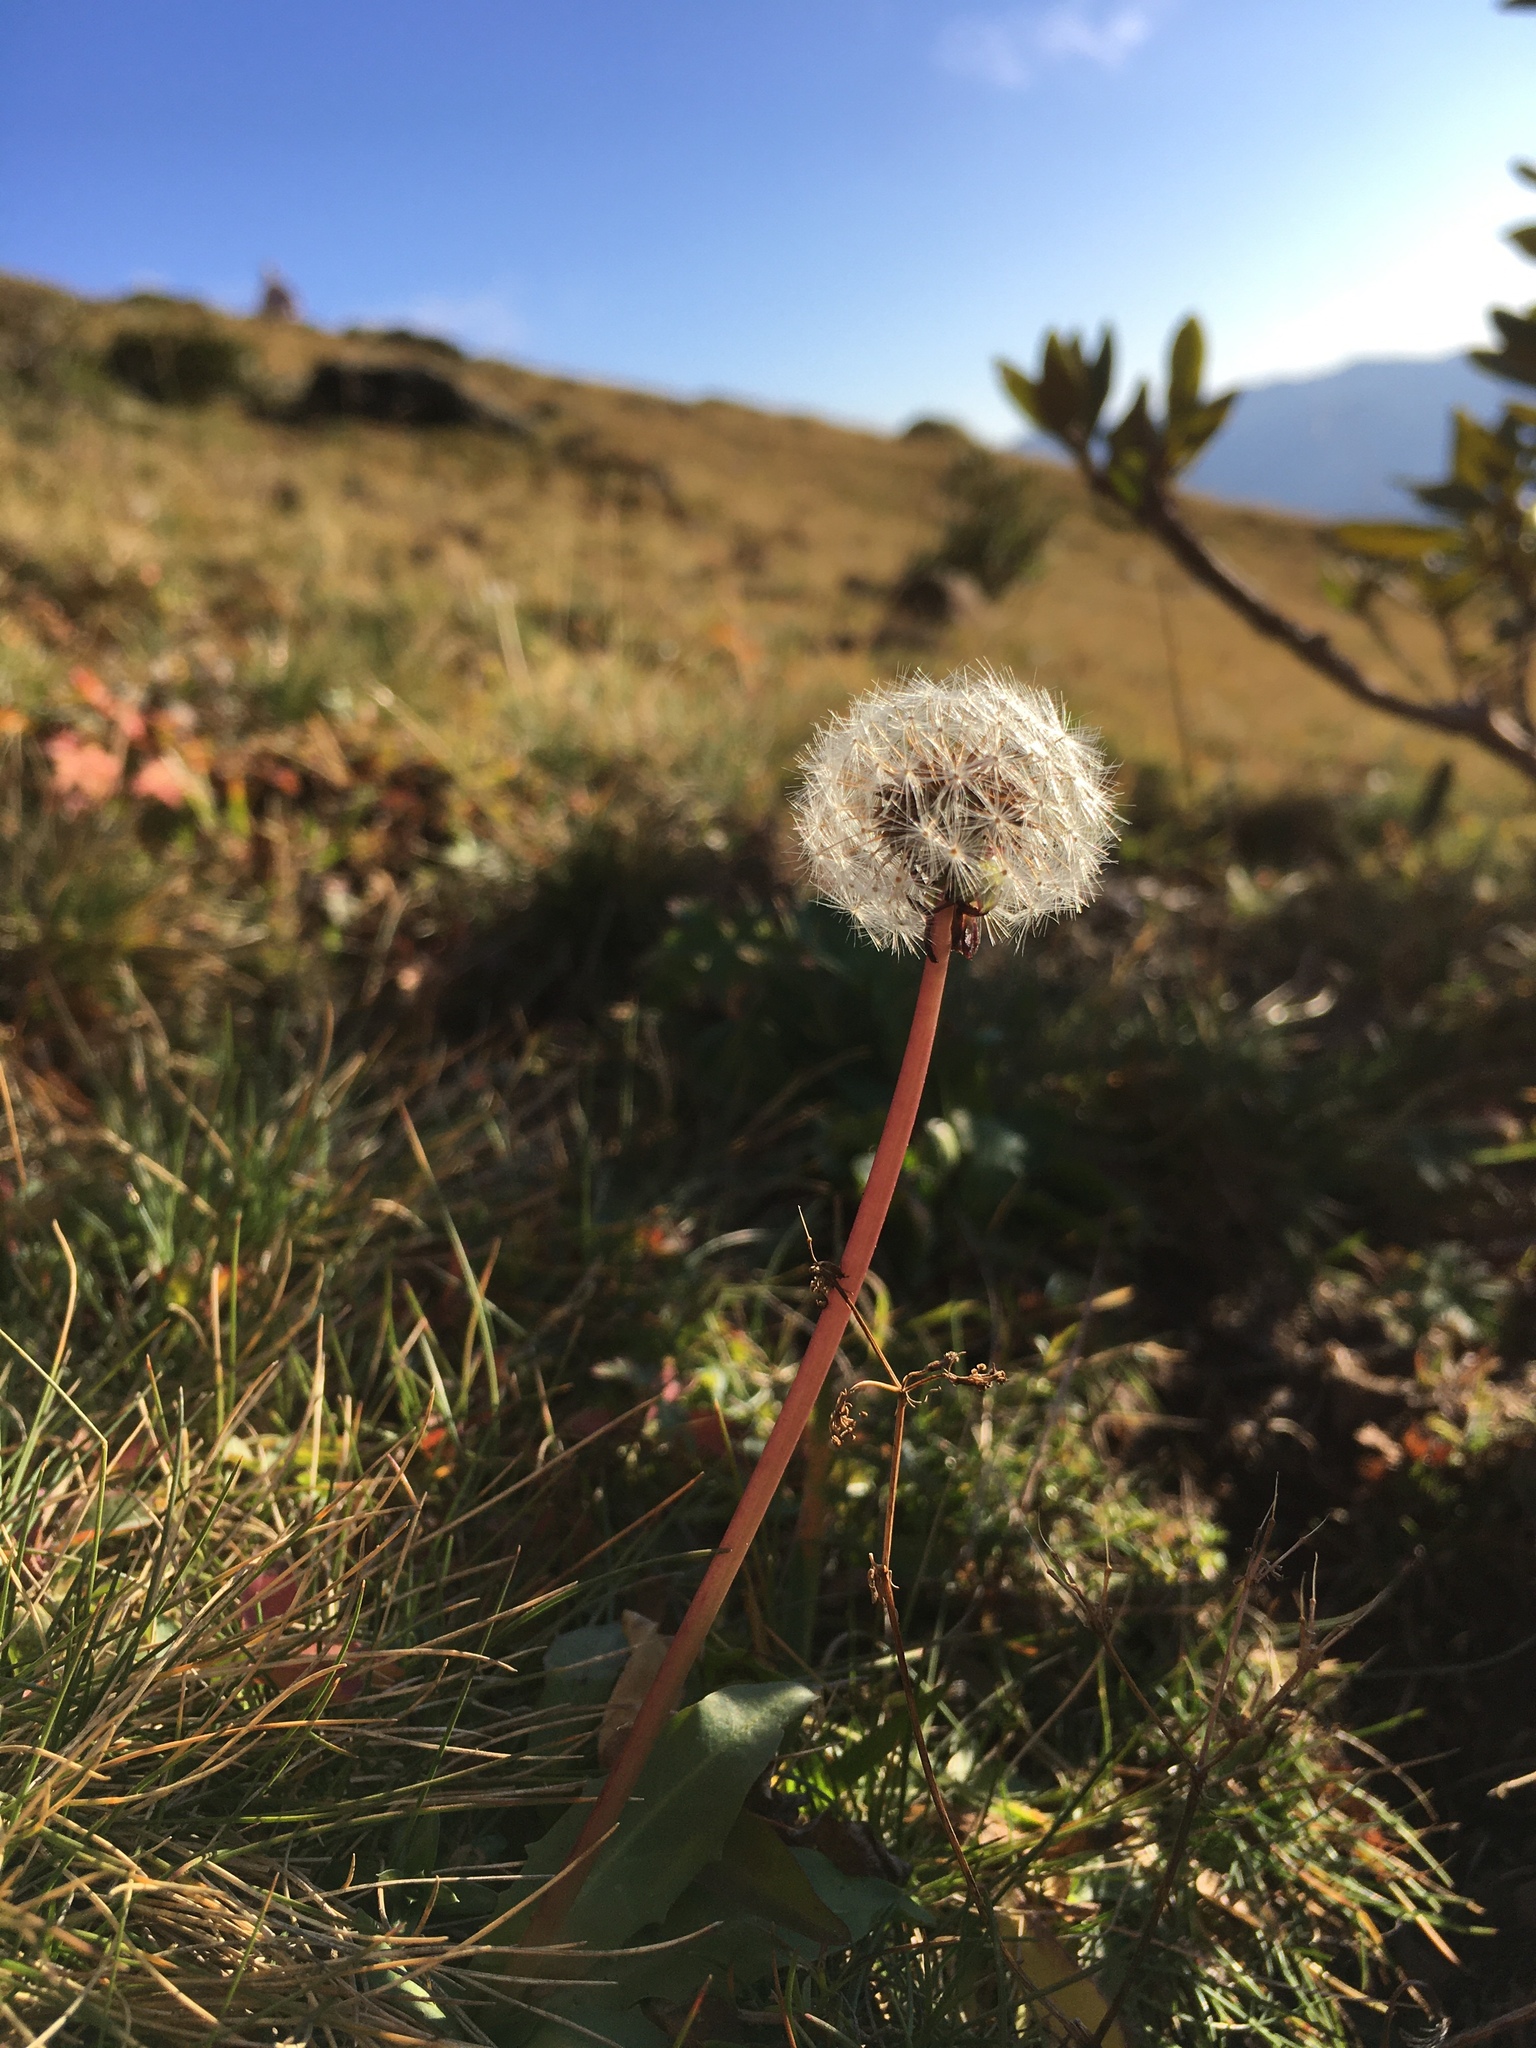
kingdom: Plantae
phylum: Tracheophyta
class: Magnoliopsida
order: Asterales
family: Asteraceae
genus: Taraxacum
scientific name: Taraxacum
